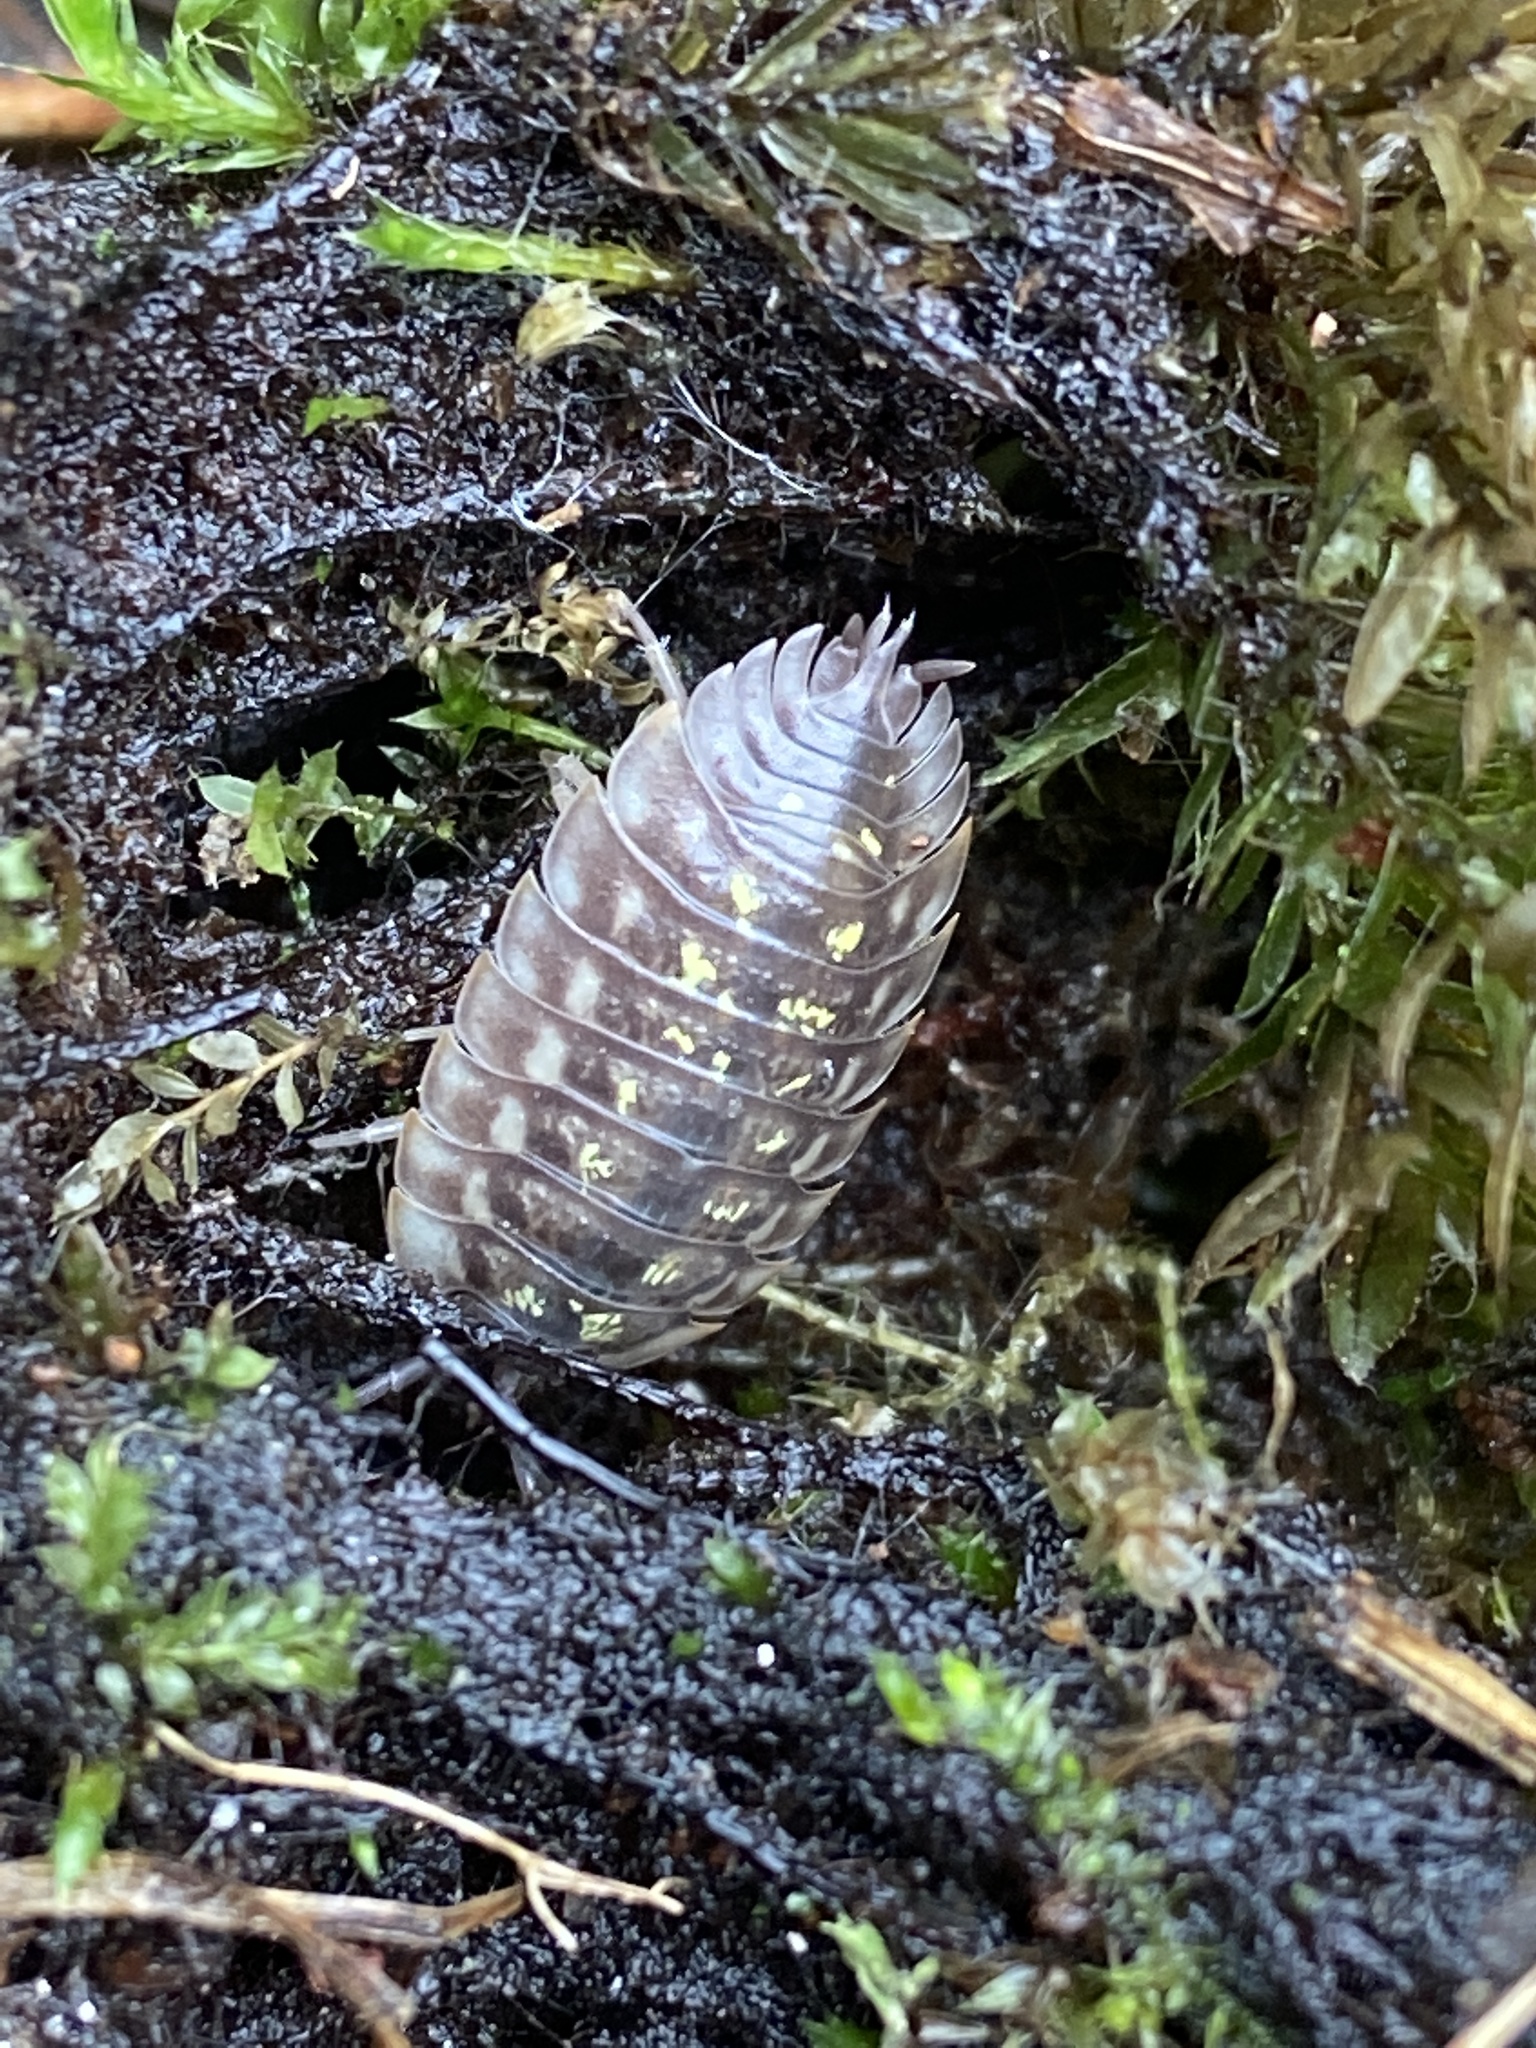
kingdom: Animalia
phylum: Arthropoda
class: Malacostraca
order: Isopoda
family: Oniscidae
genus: Oniscus
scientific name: Oniscus asellus
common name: Common shiny woodlouse
